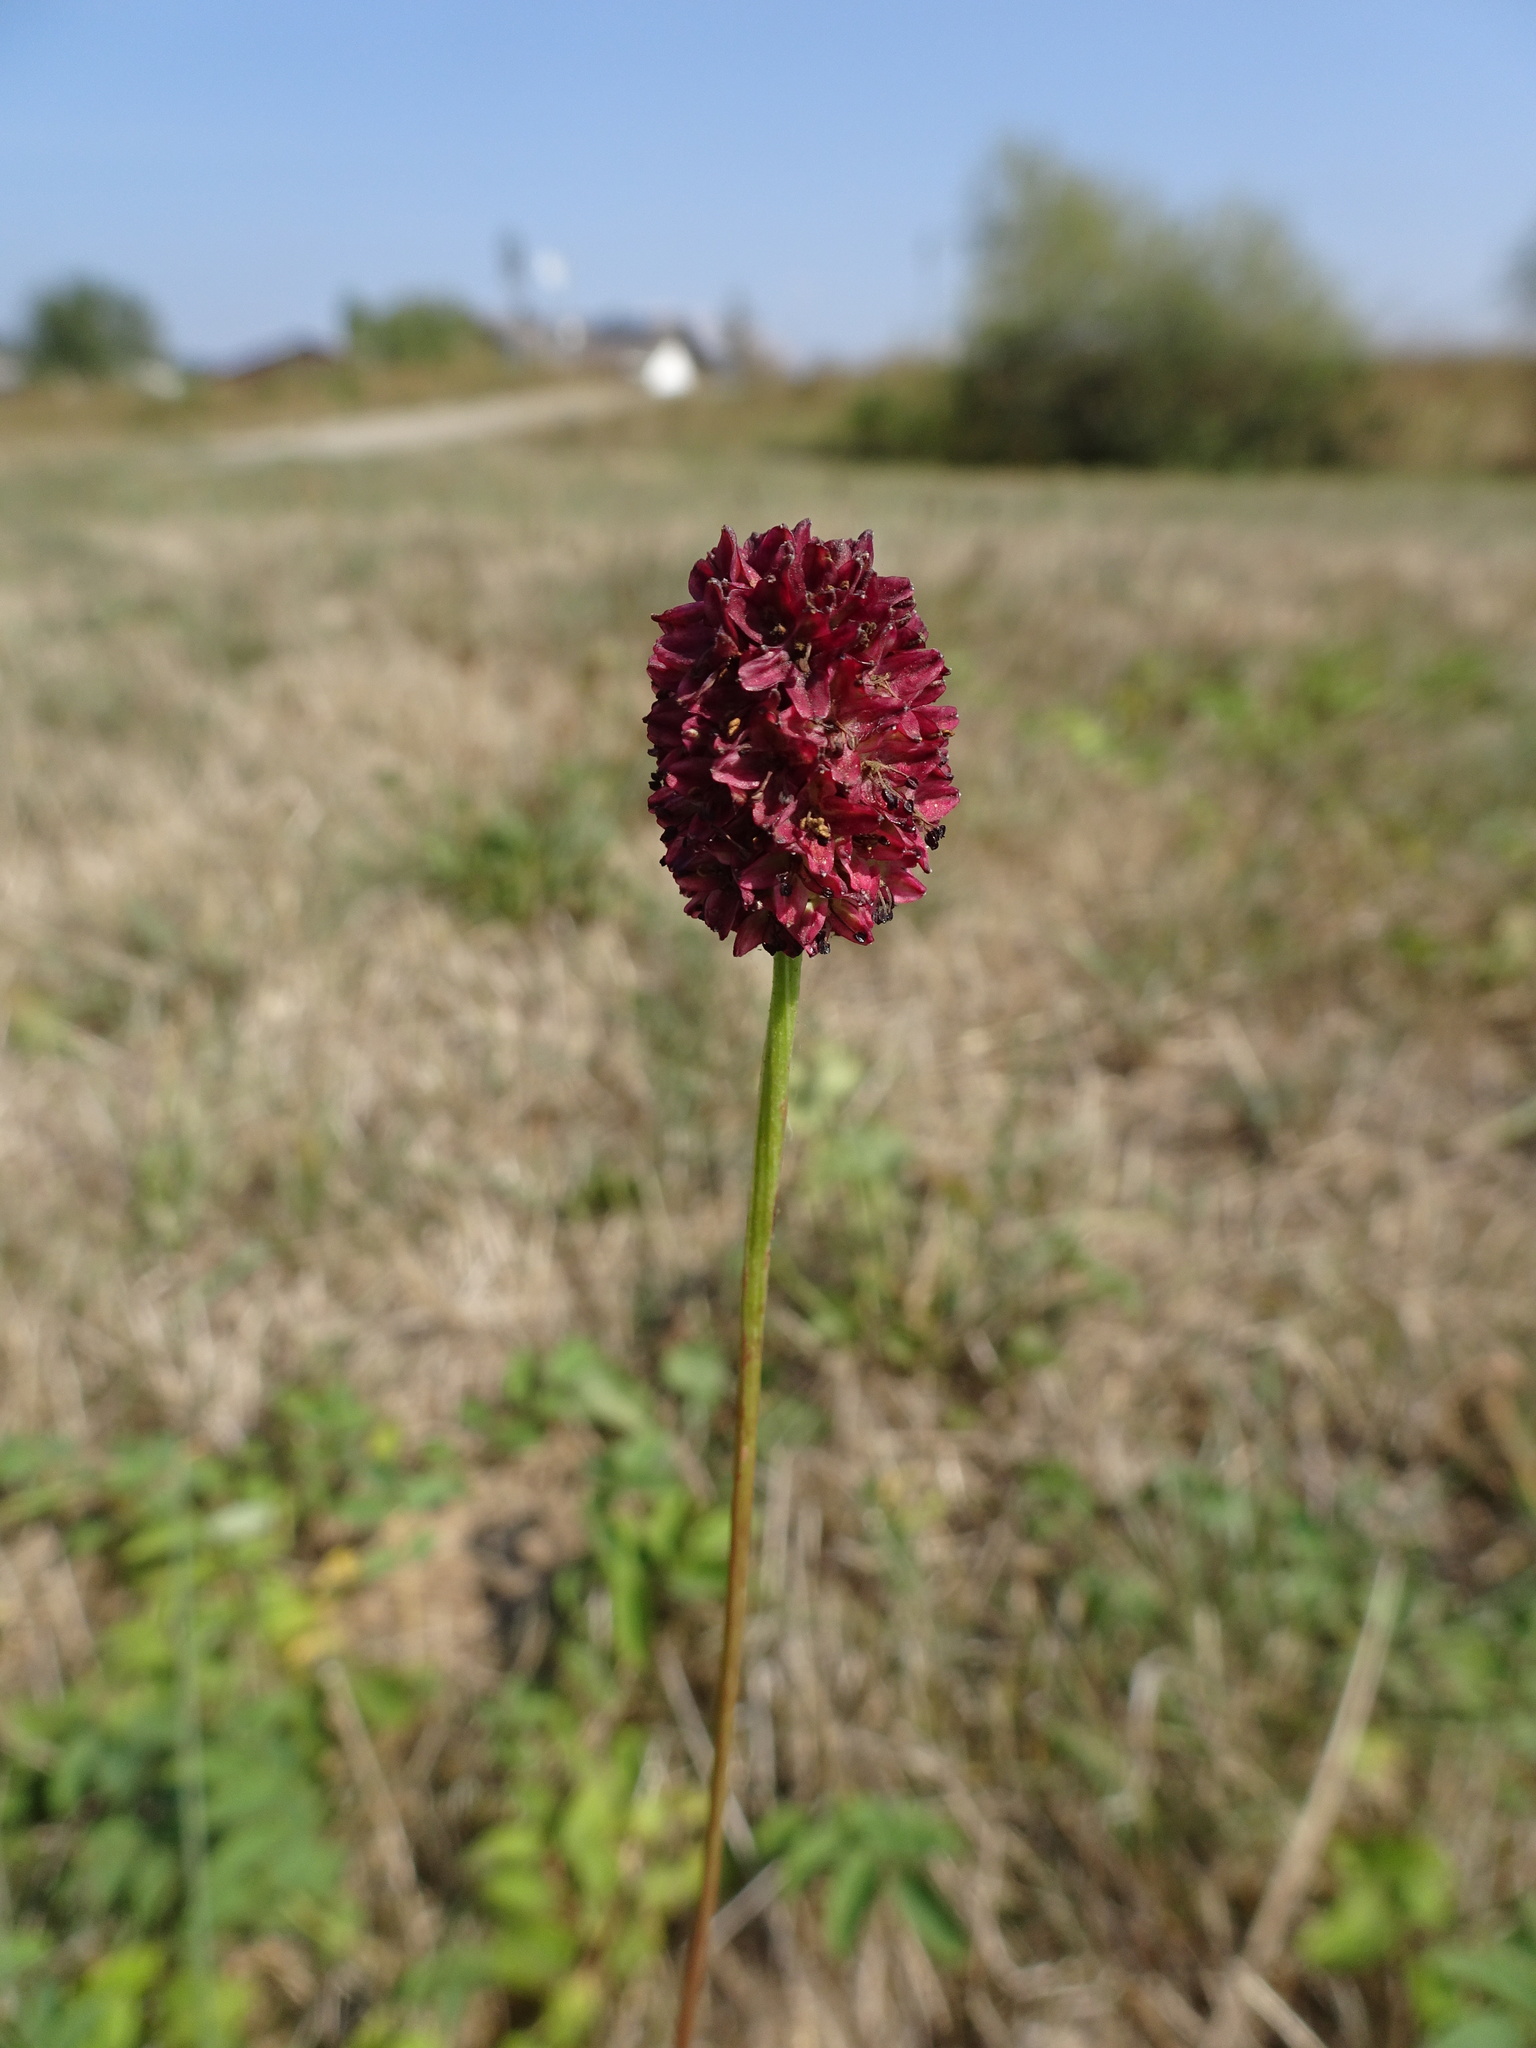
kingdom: Plantae
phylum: Tracheophyta
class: Magnoliopsida
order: Rosales
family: Rosaceae
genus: Sanguisorba
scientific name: Sanguisorba officinalis
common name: Great burnet
